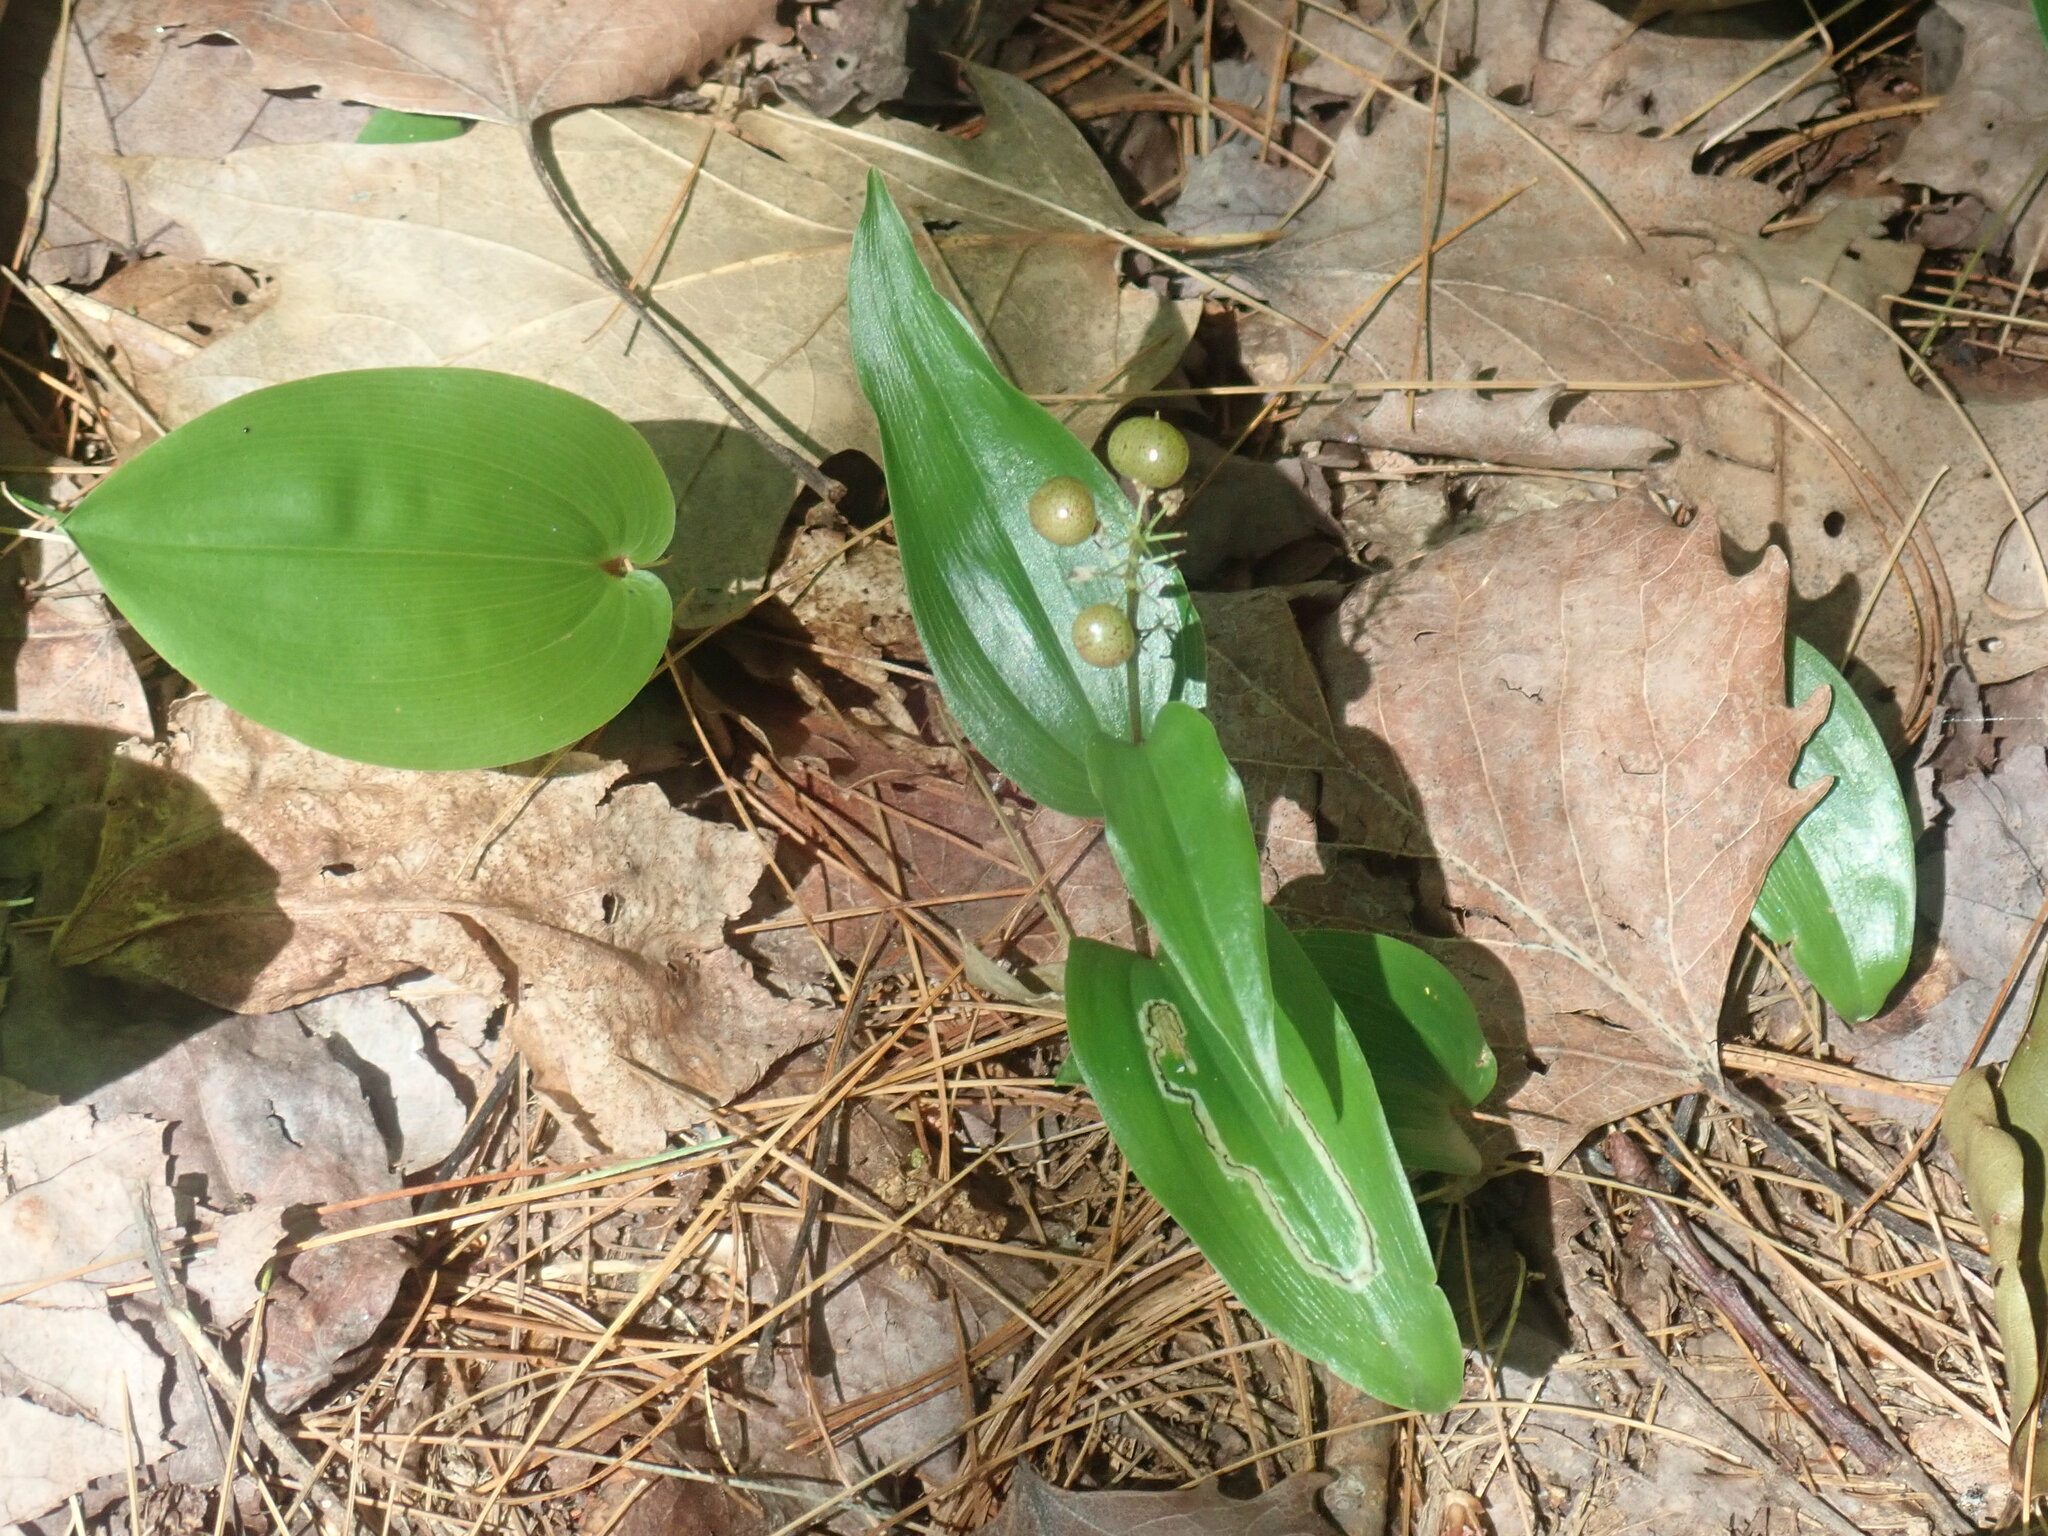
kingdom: Plantae
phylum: Tracheophyta
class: Liliopsida
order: Asparagales
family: Asparagaceae
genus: Maianthemum
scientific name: Maianthemum canadense
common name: False lily-of-the-valley
